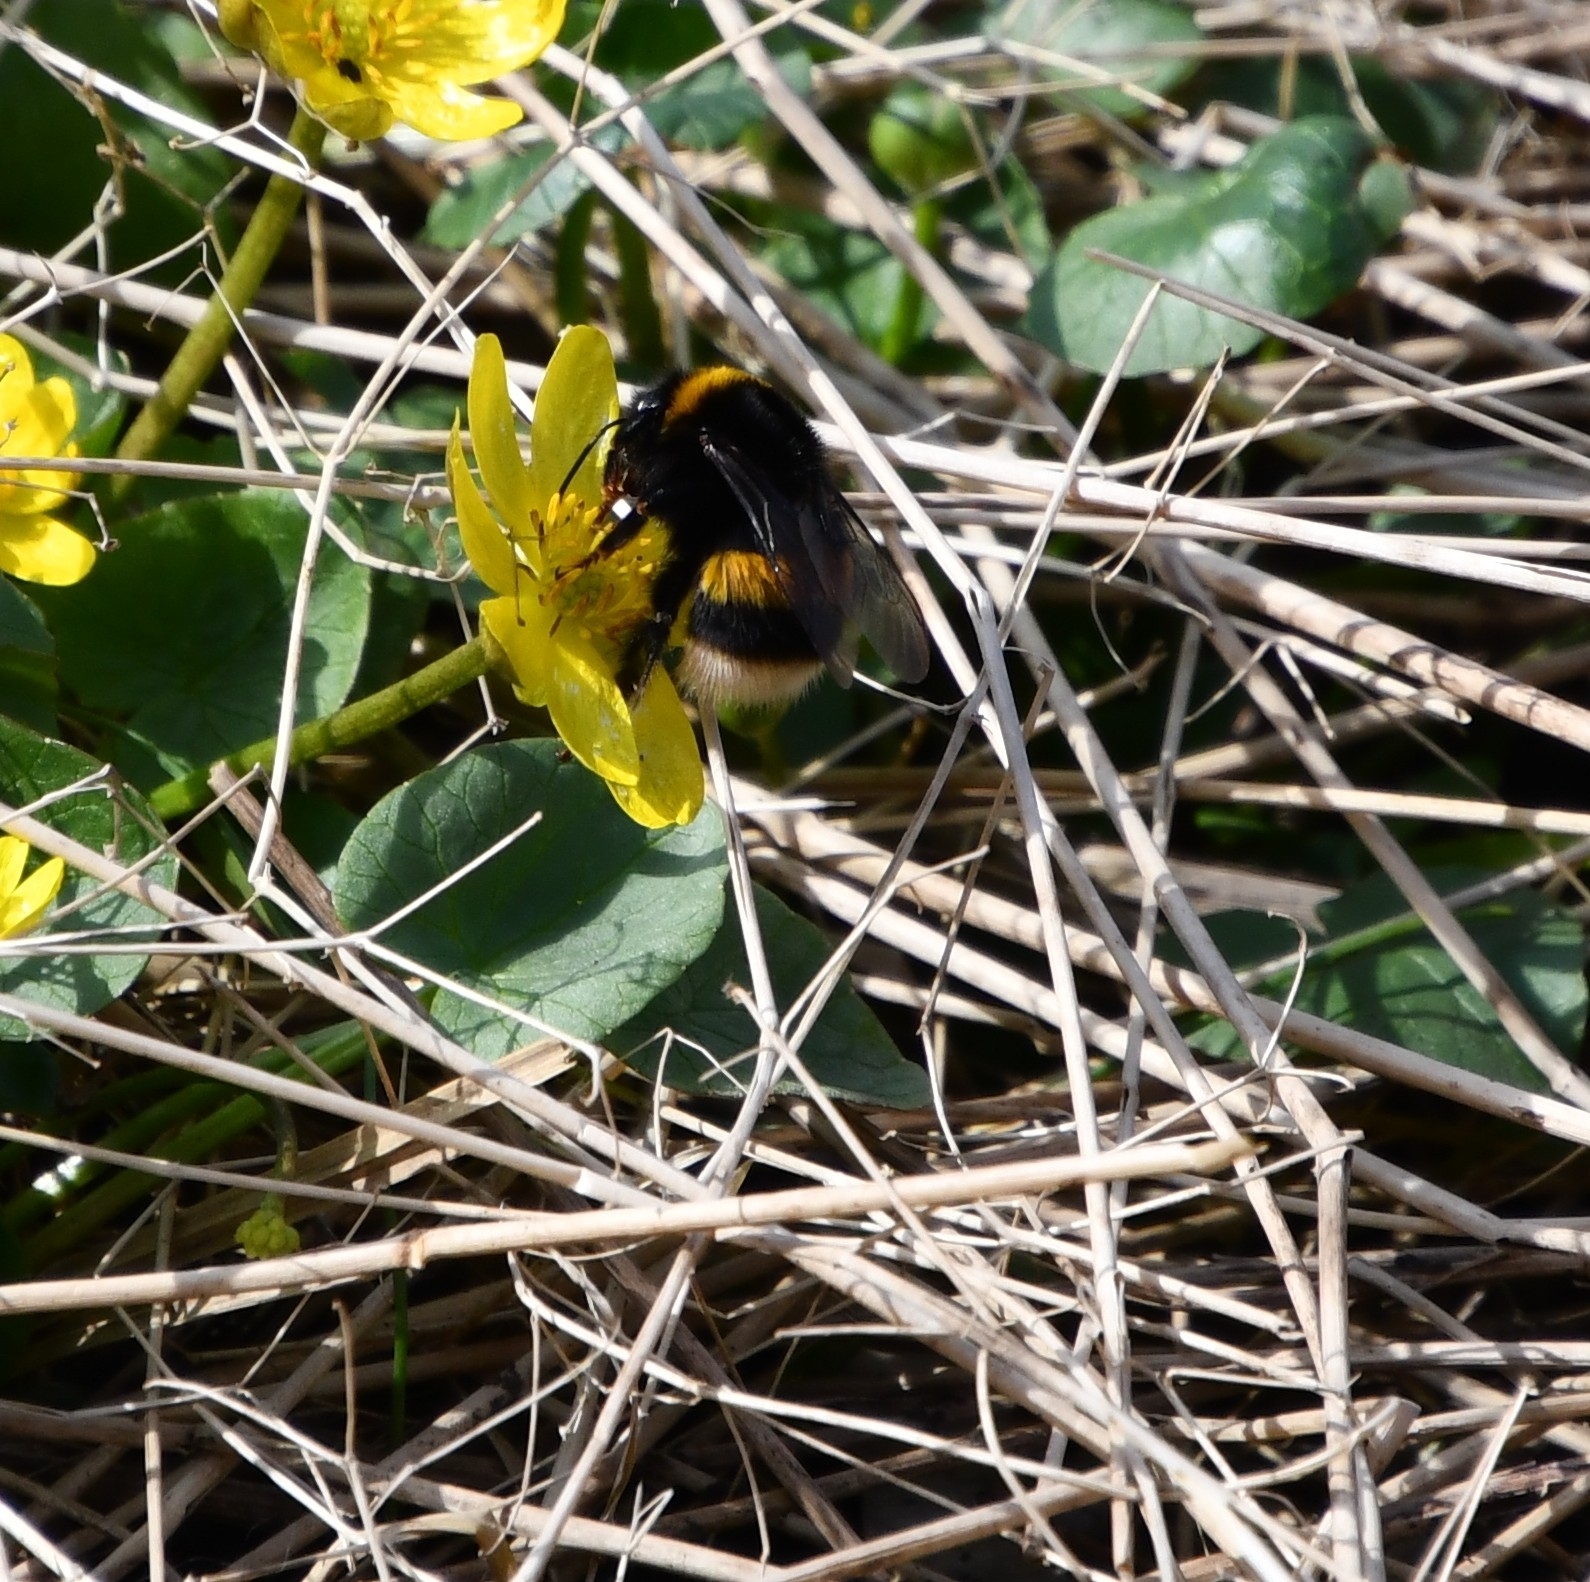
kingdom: Animalia
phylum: Arthropoda
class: Insecta
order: Hymenoptera
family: Apidae
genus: Bombus
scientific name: Bombus
